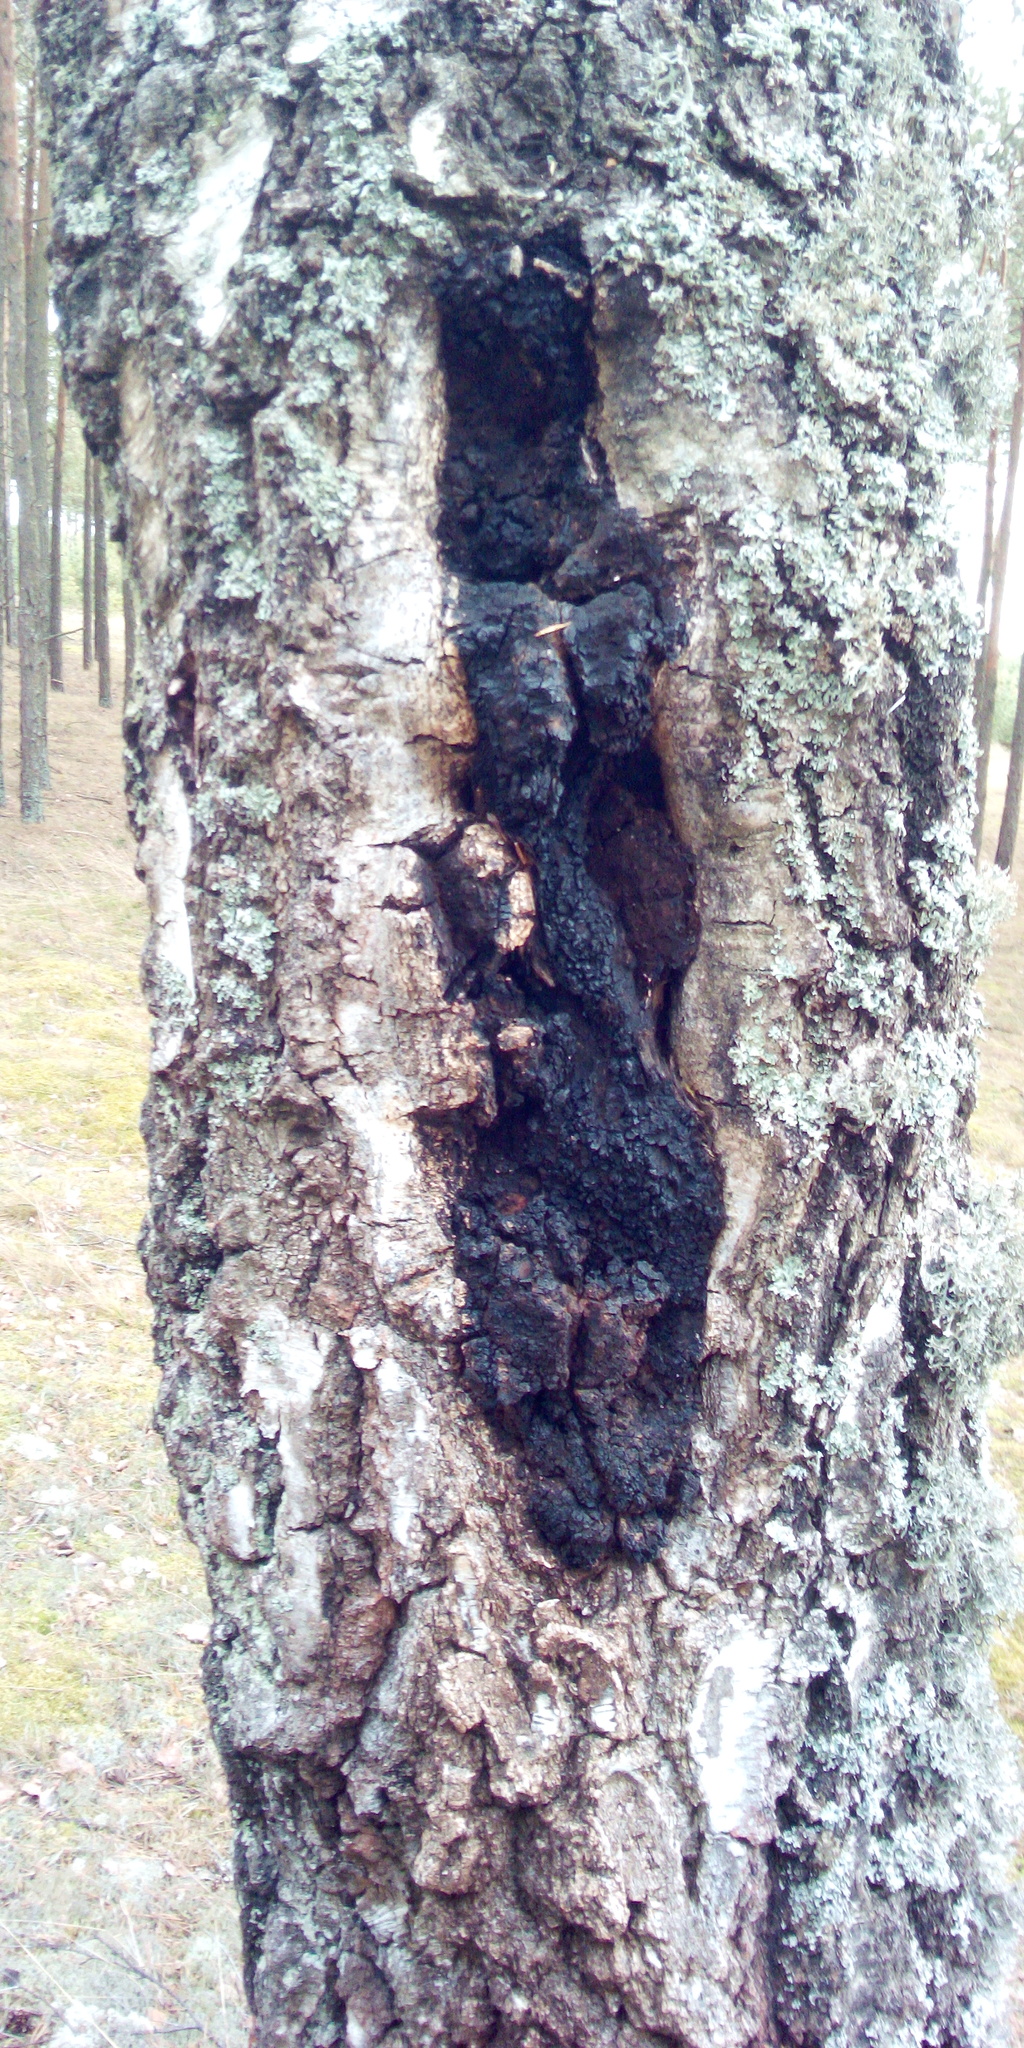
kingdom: Fungi
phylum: Basidiomycota
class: Agaricomycetes
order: Hymenochaetales
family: Hymenochaetaceae
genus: Inonotus
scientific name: Inonotus obliquus
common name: Chaga
